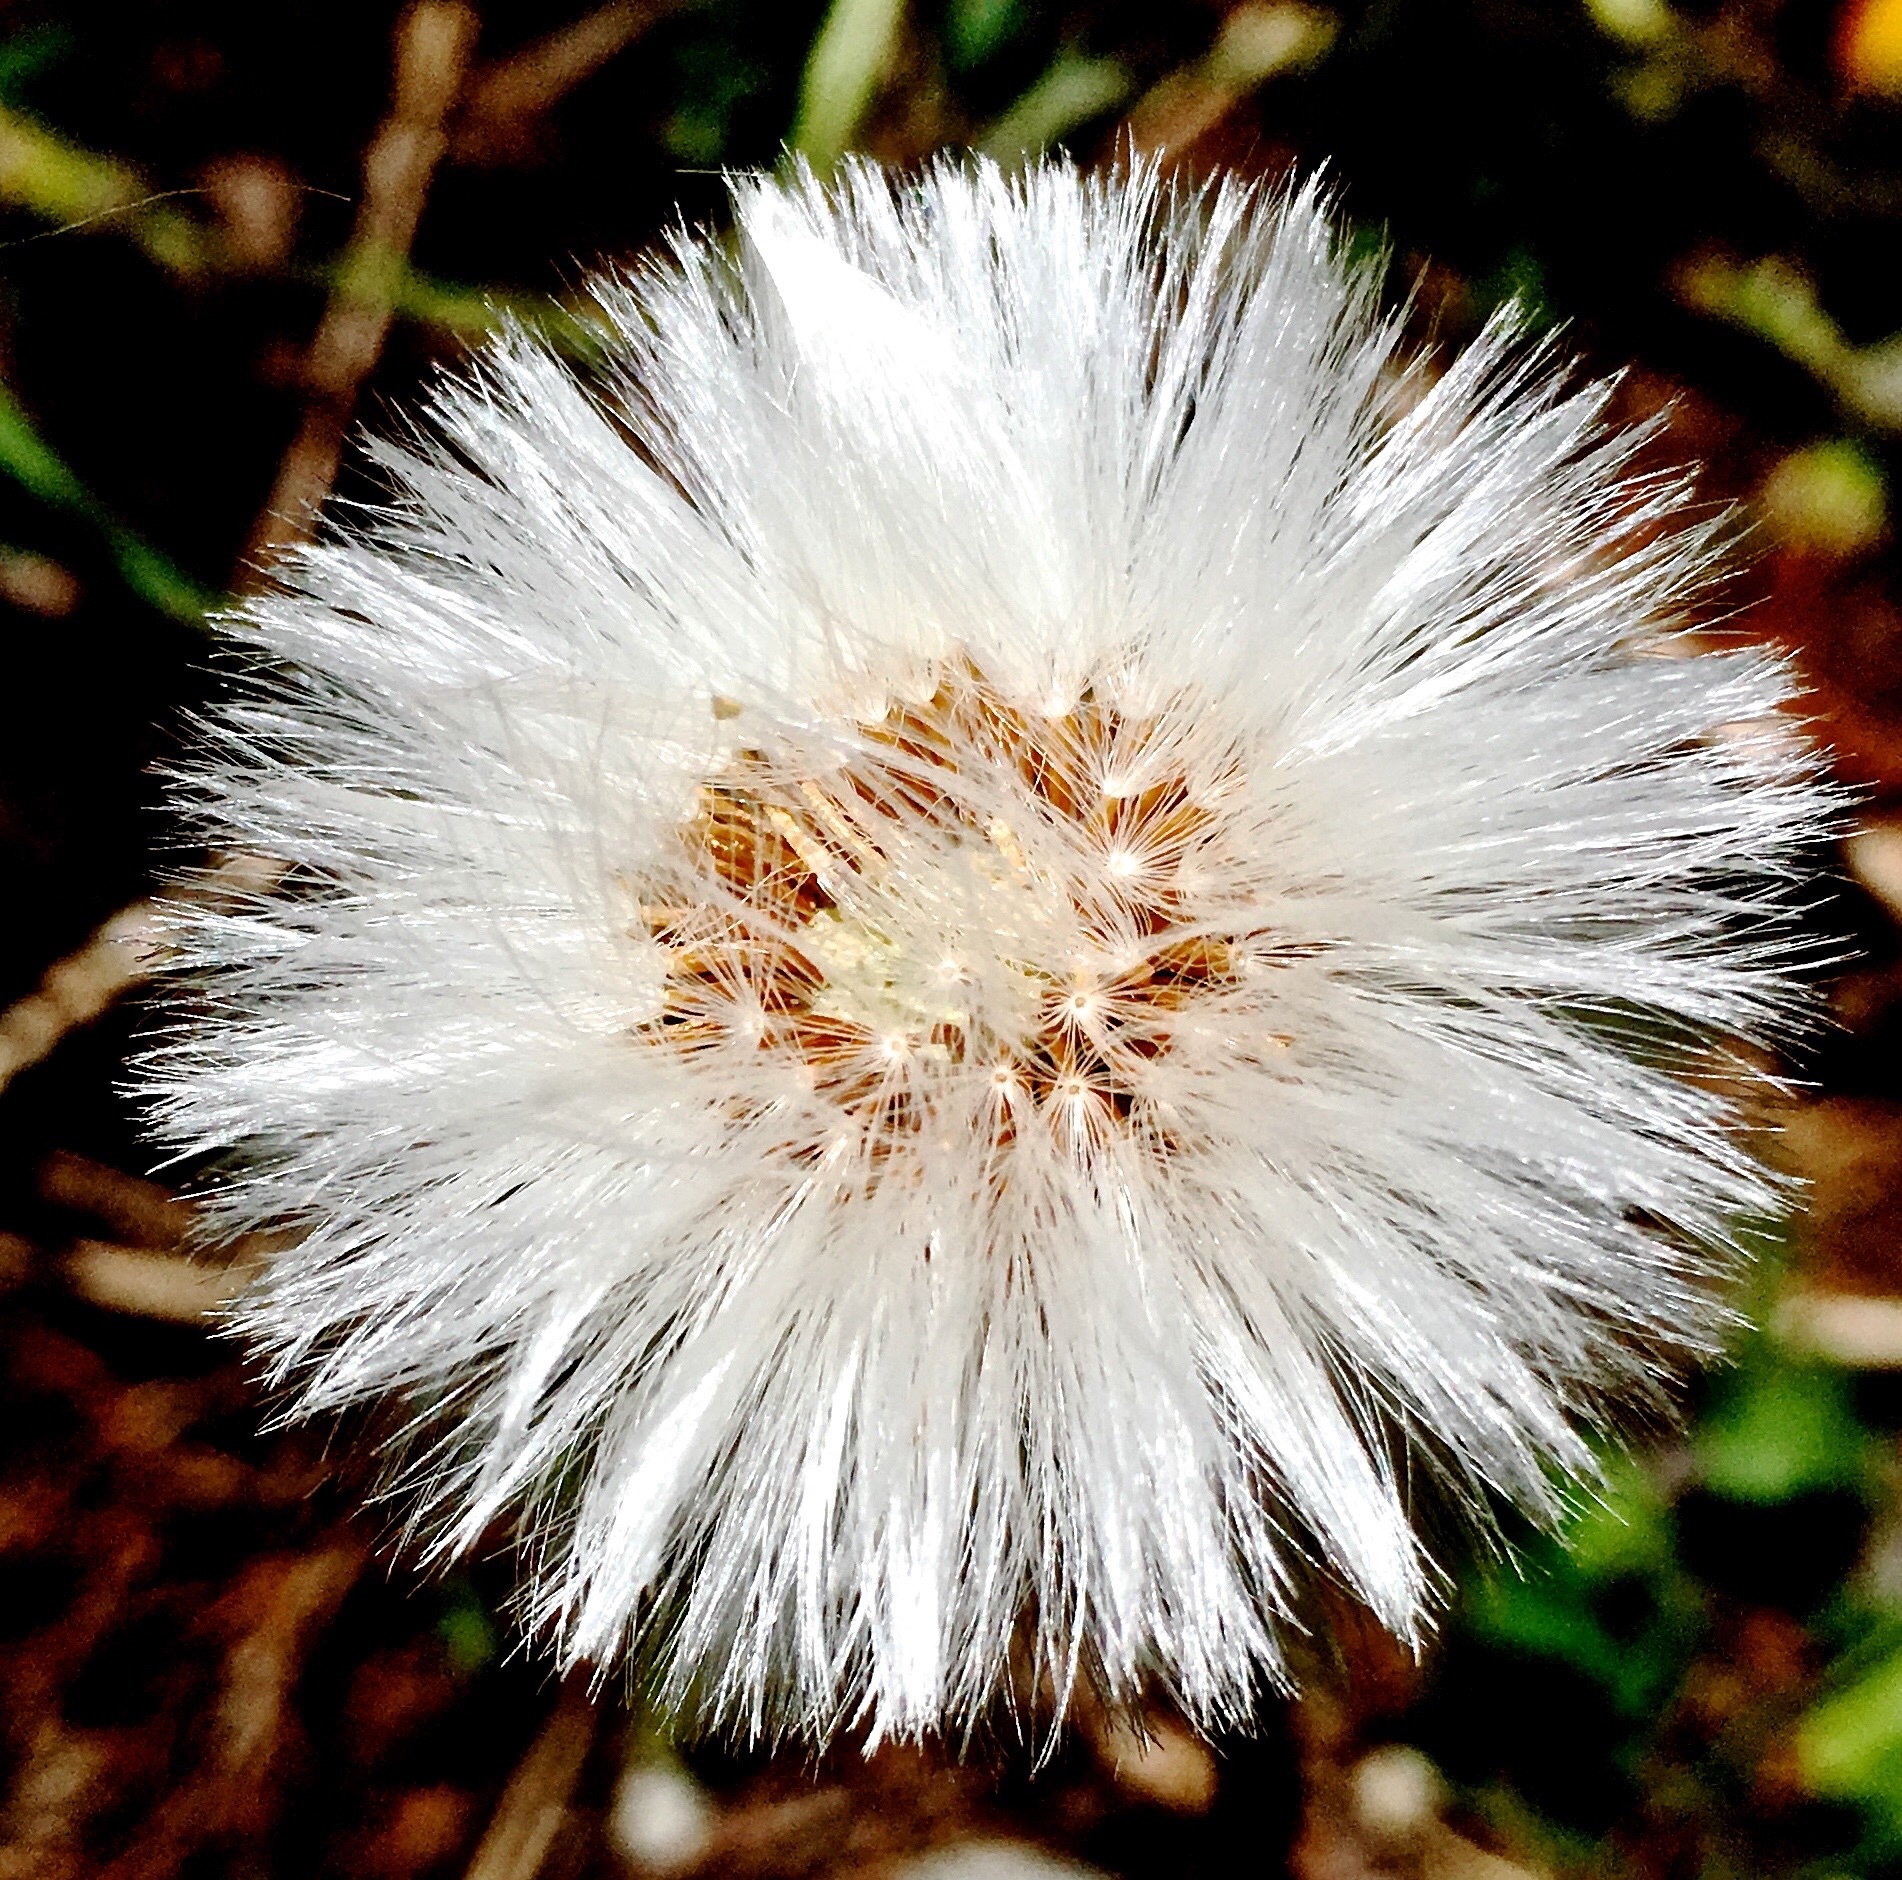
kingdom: Plantae
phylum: Tracheophyta
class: Magnoliopsida
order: Asterales
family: Asteraceae
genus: Tussilago
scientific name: Tussilago farfara
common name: Coltsfoot
